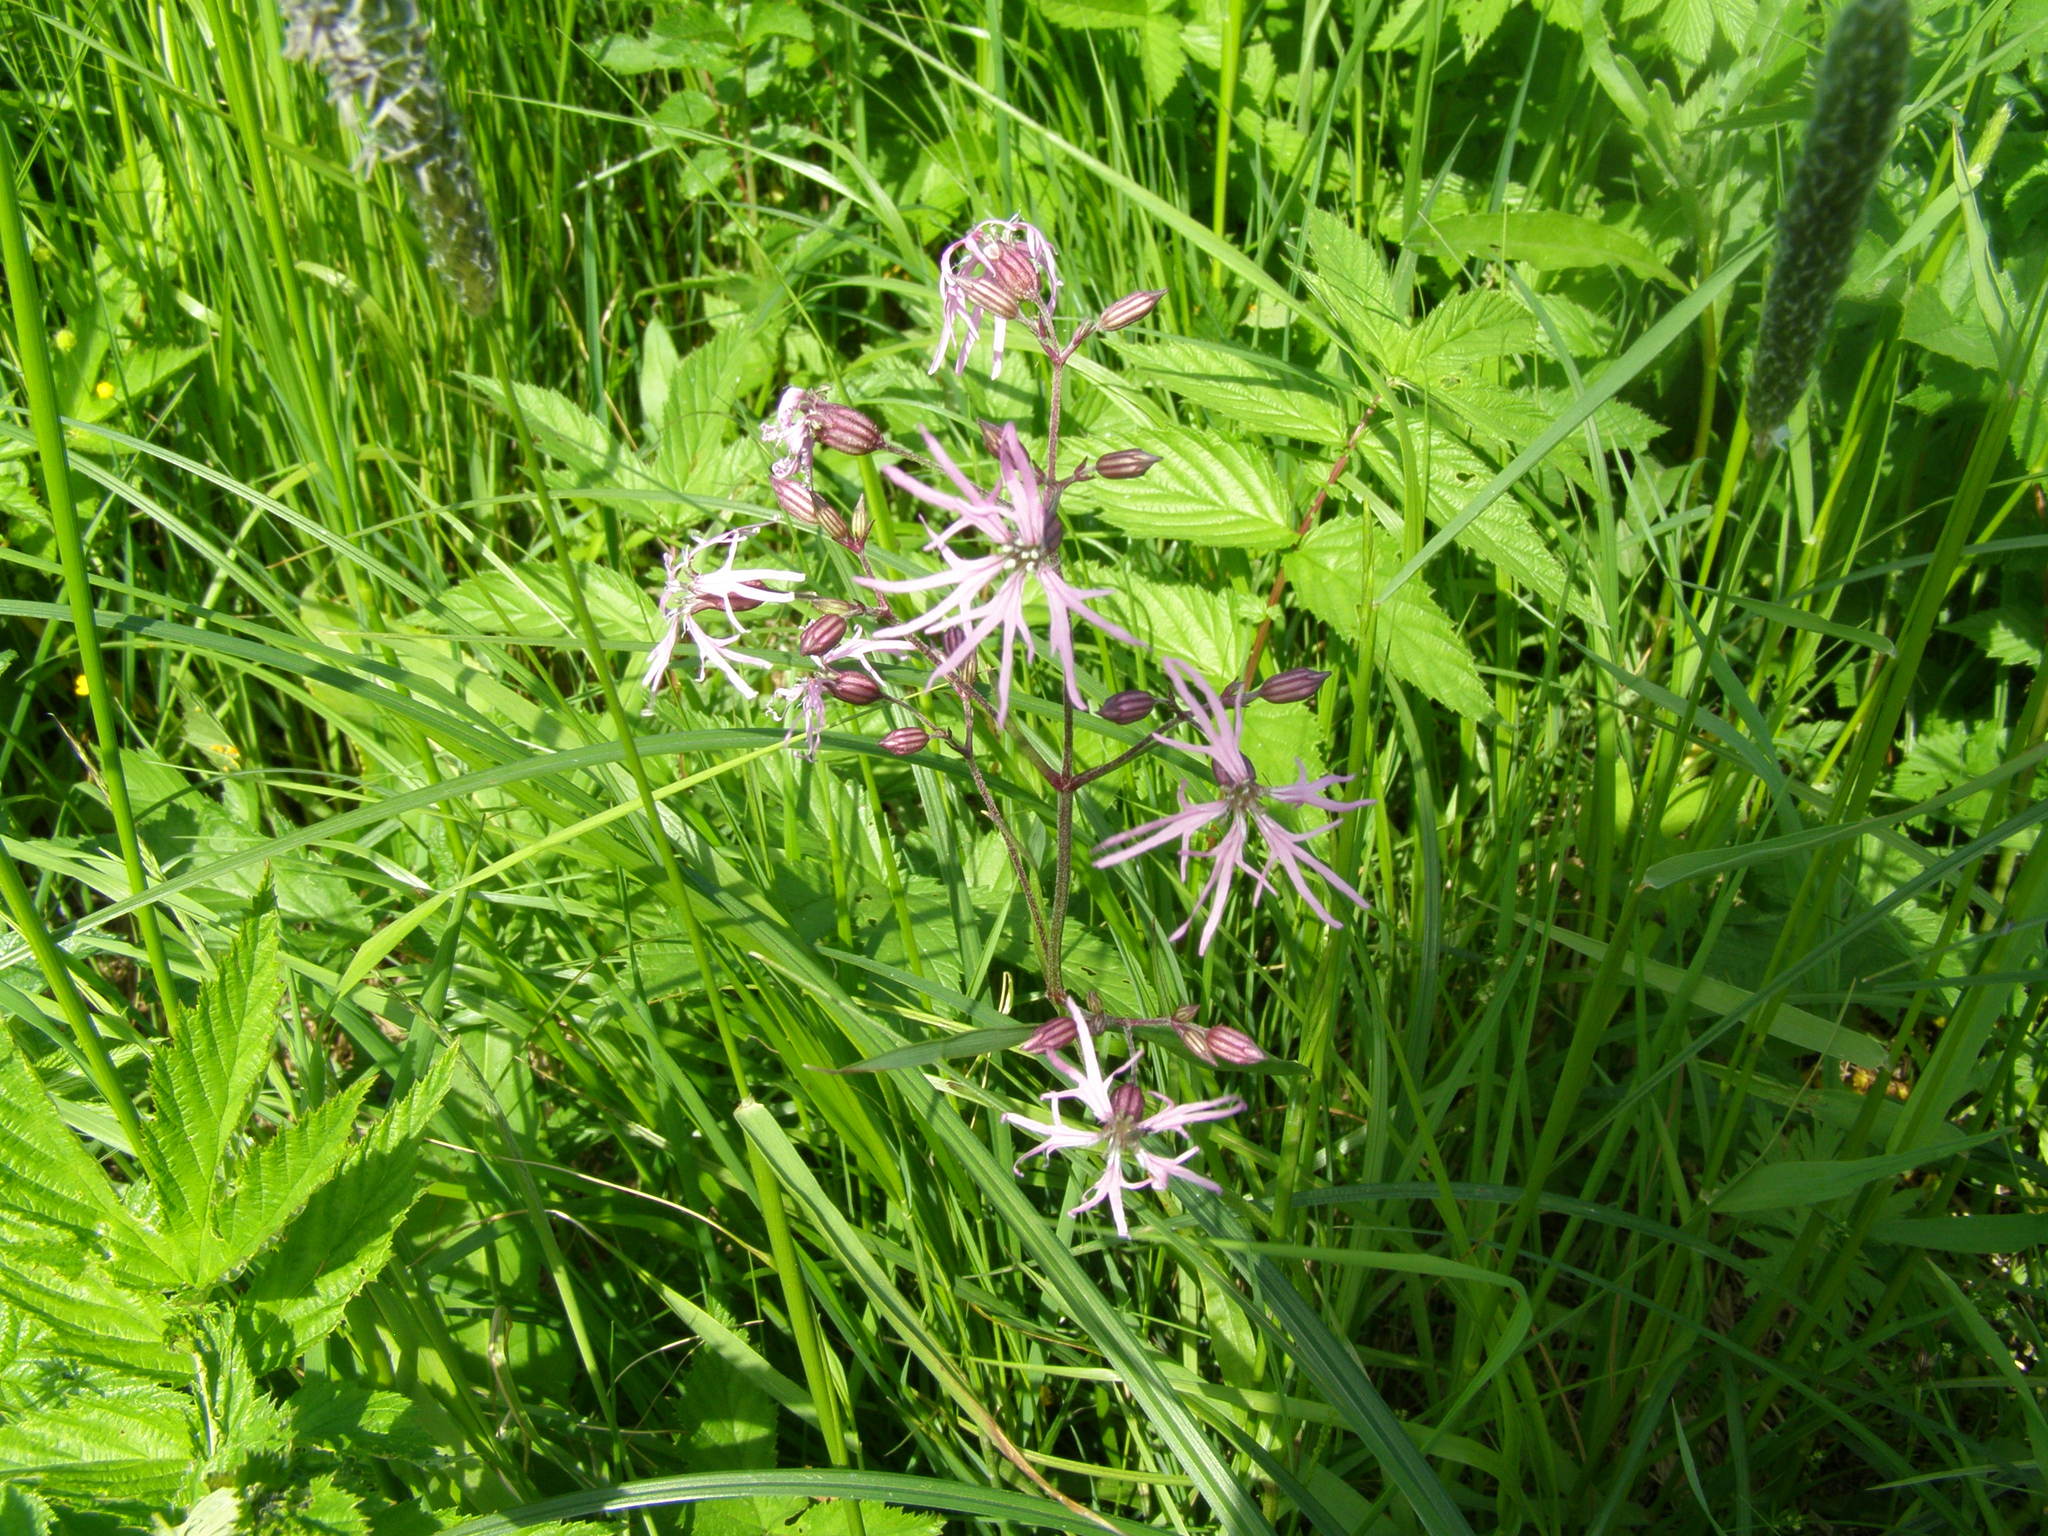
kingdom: Plantae
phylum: Tracheophyta
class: Magnoliopsida
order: Caryophyllales
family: Caryophyllaceae
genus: Silene
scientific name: Silene flos-cuculi
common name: Ragged-robin
